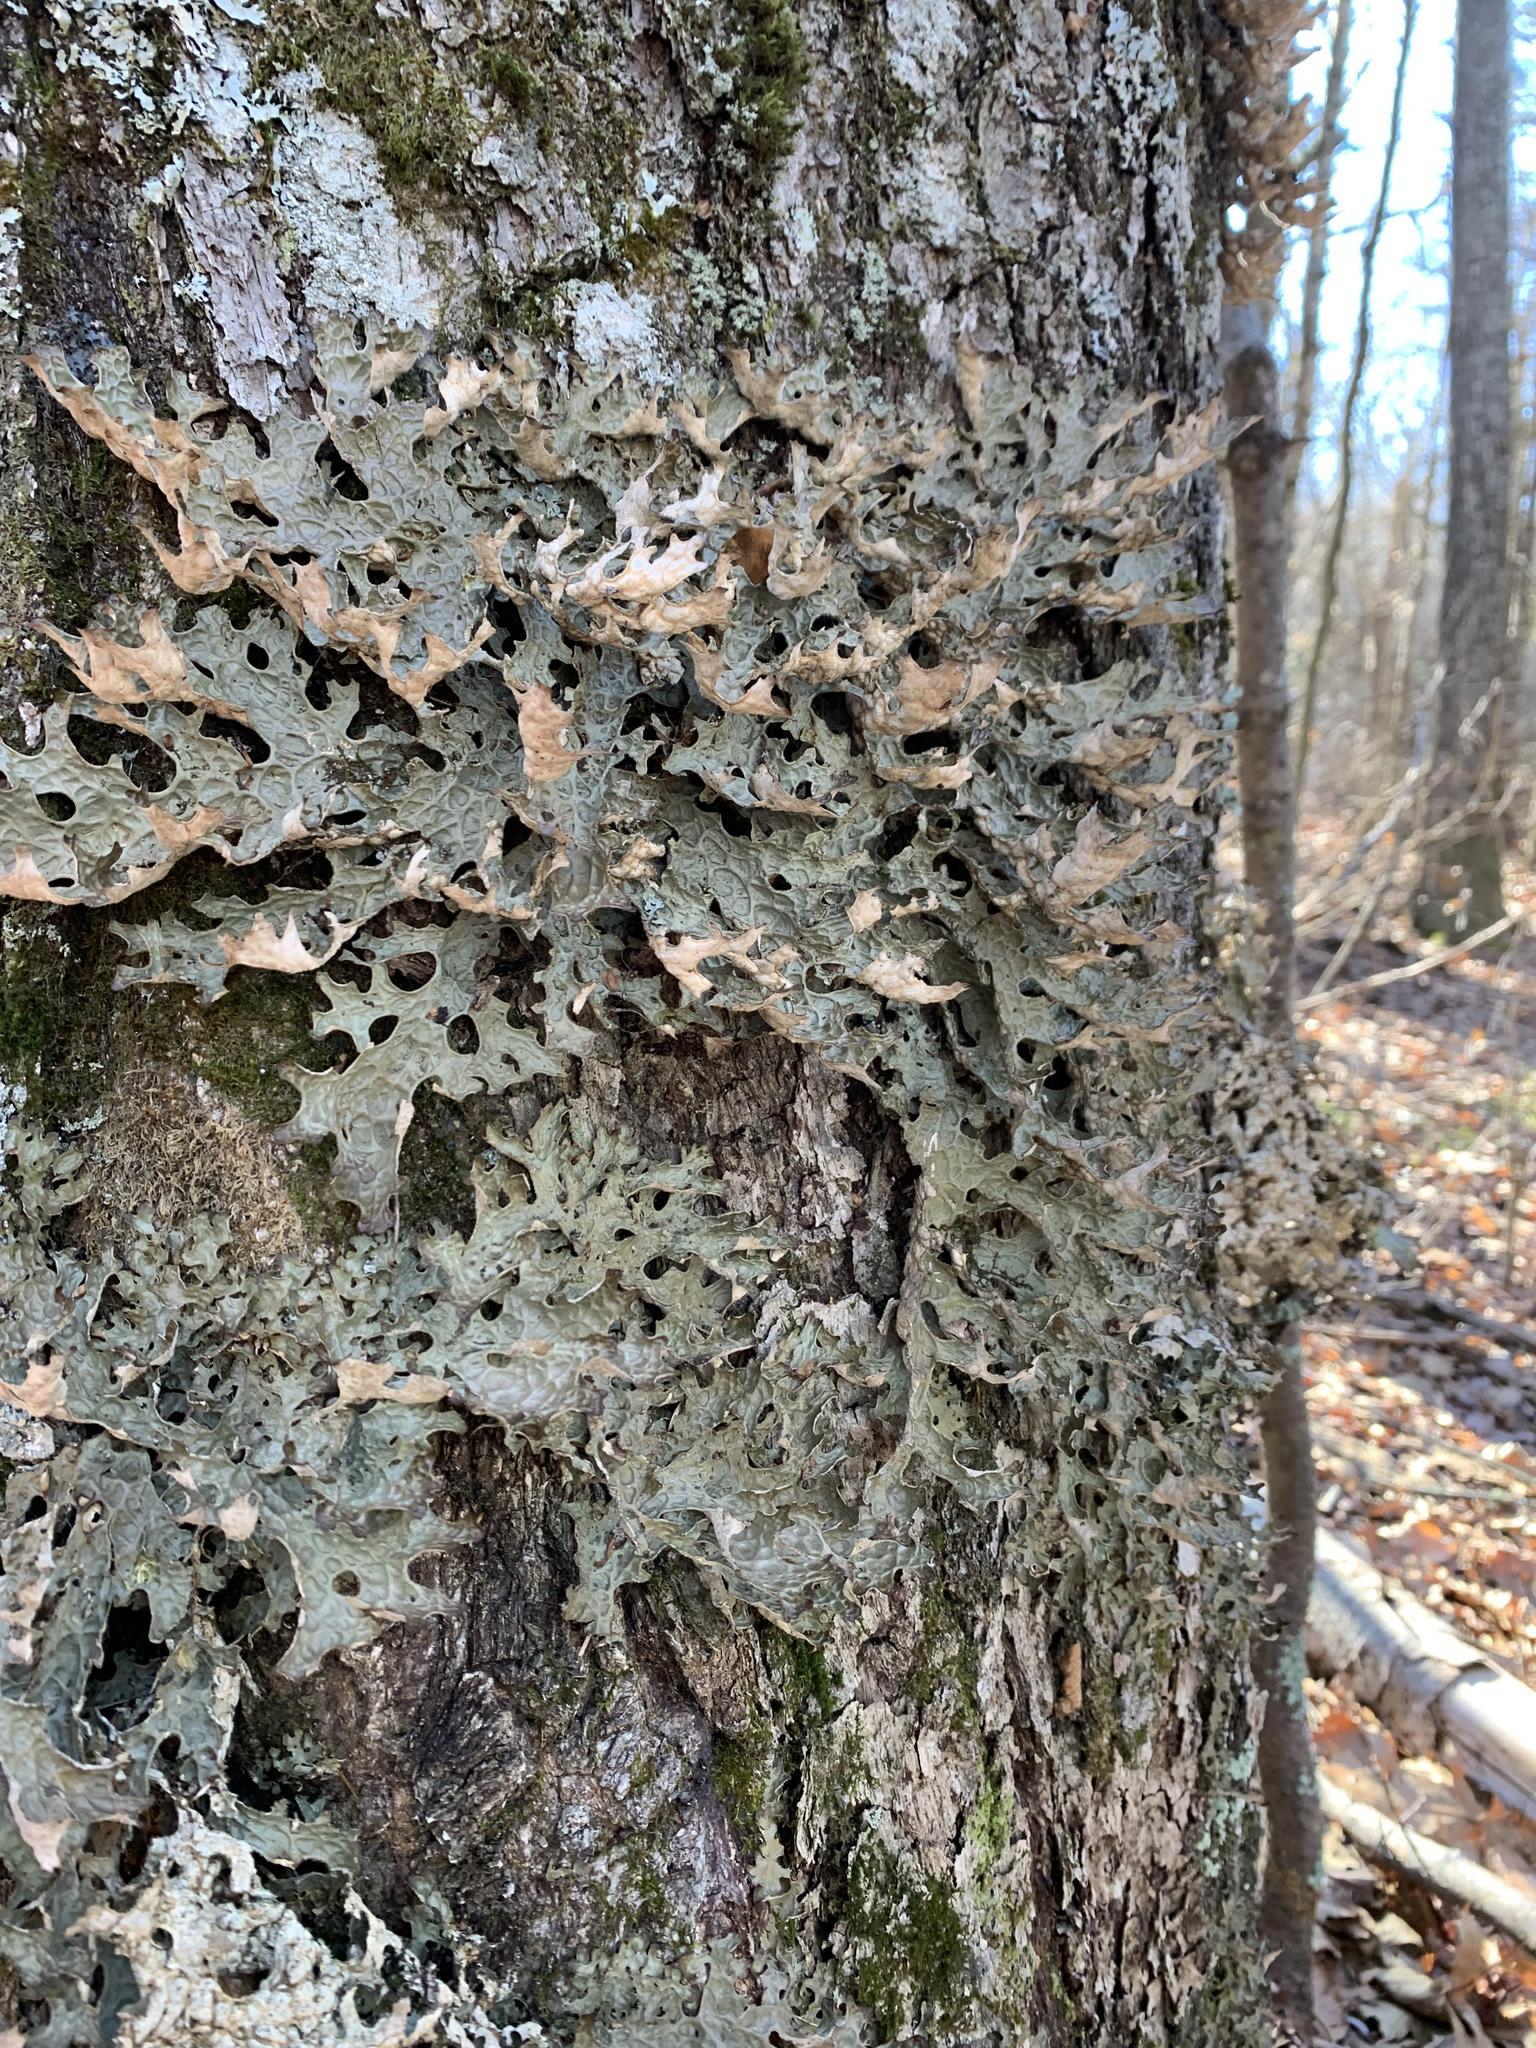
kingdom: Fungi
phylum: Ascomycota
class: Lecanoromycetes
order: Peltigerales
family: Lobariaceae
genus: Lobaria
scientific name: Lobaria pulmonaria
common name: Lungwort
